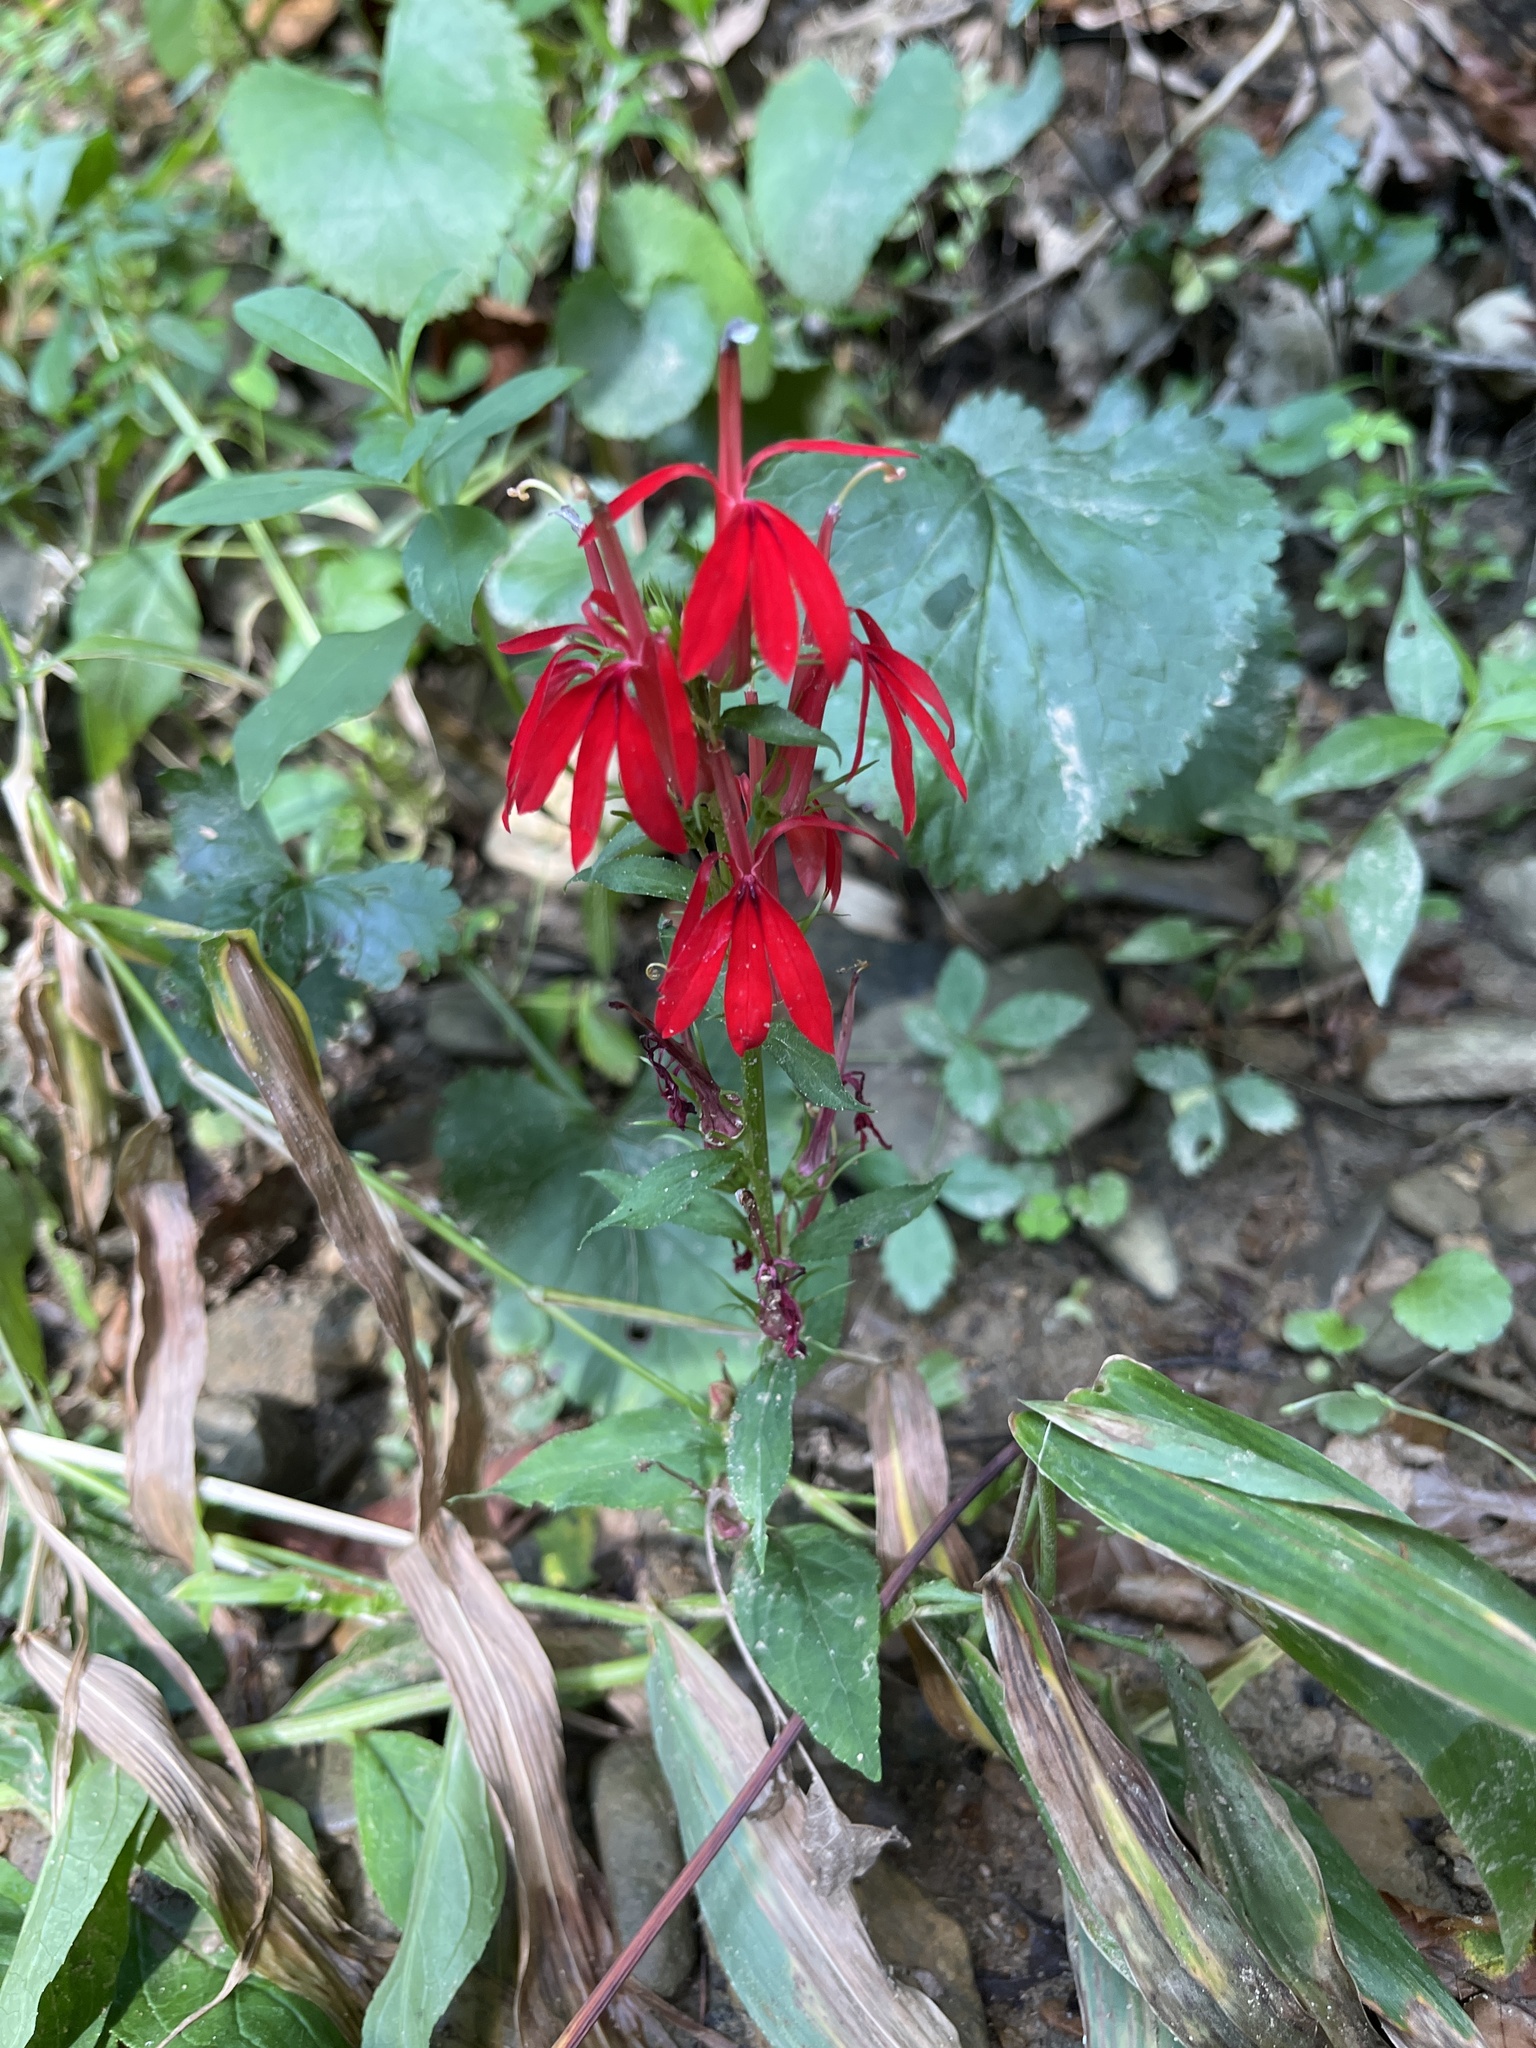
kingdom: Plantae
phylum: Tracheophyta
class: Magnoliopsida
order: Asterales
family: Campanulaceae
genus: Lobelia
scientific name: Lobelia cardinalis
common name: Cardinal flower
